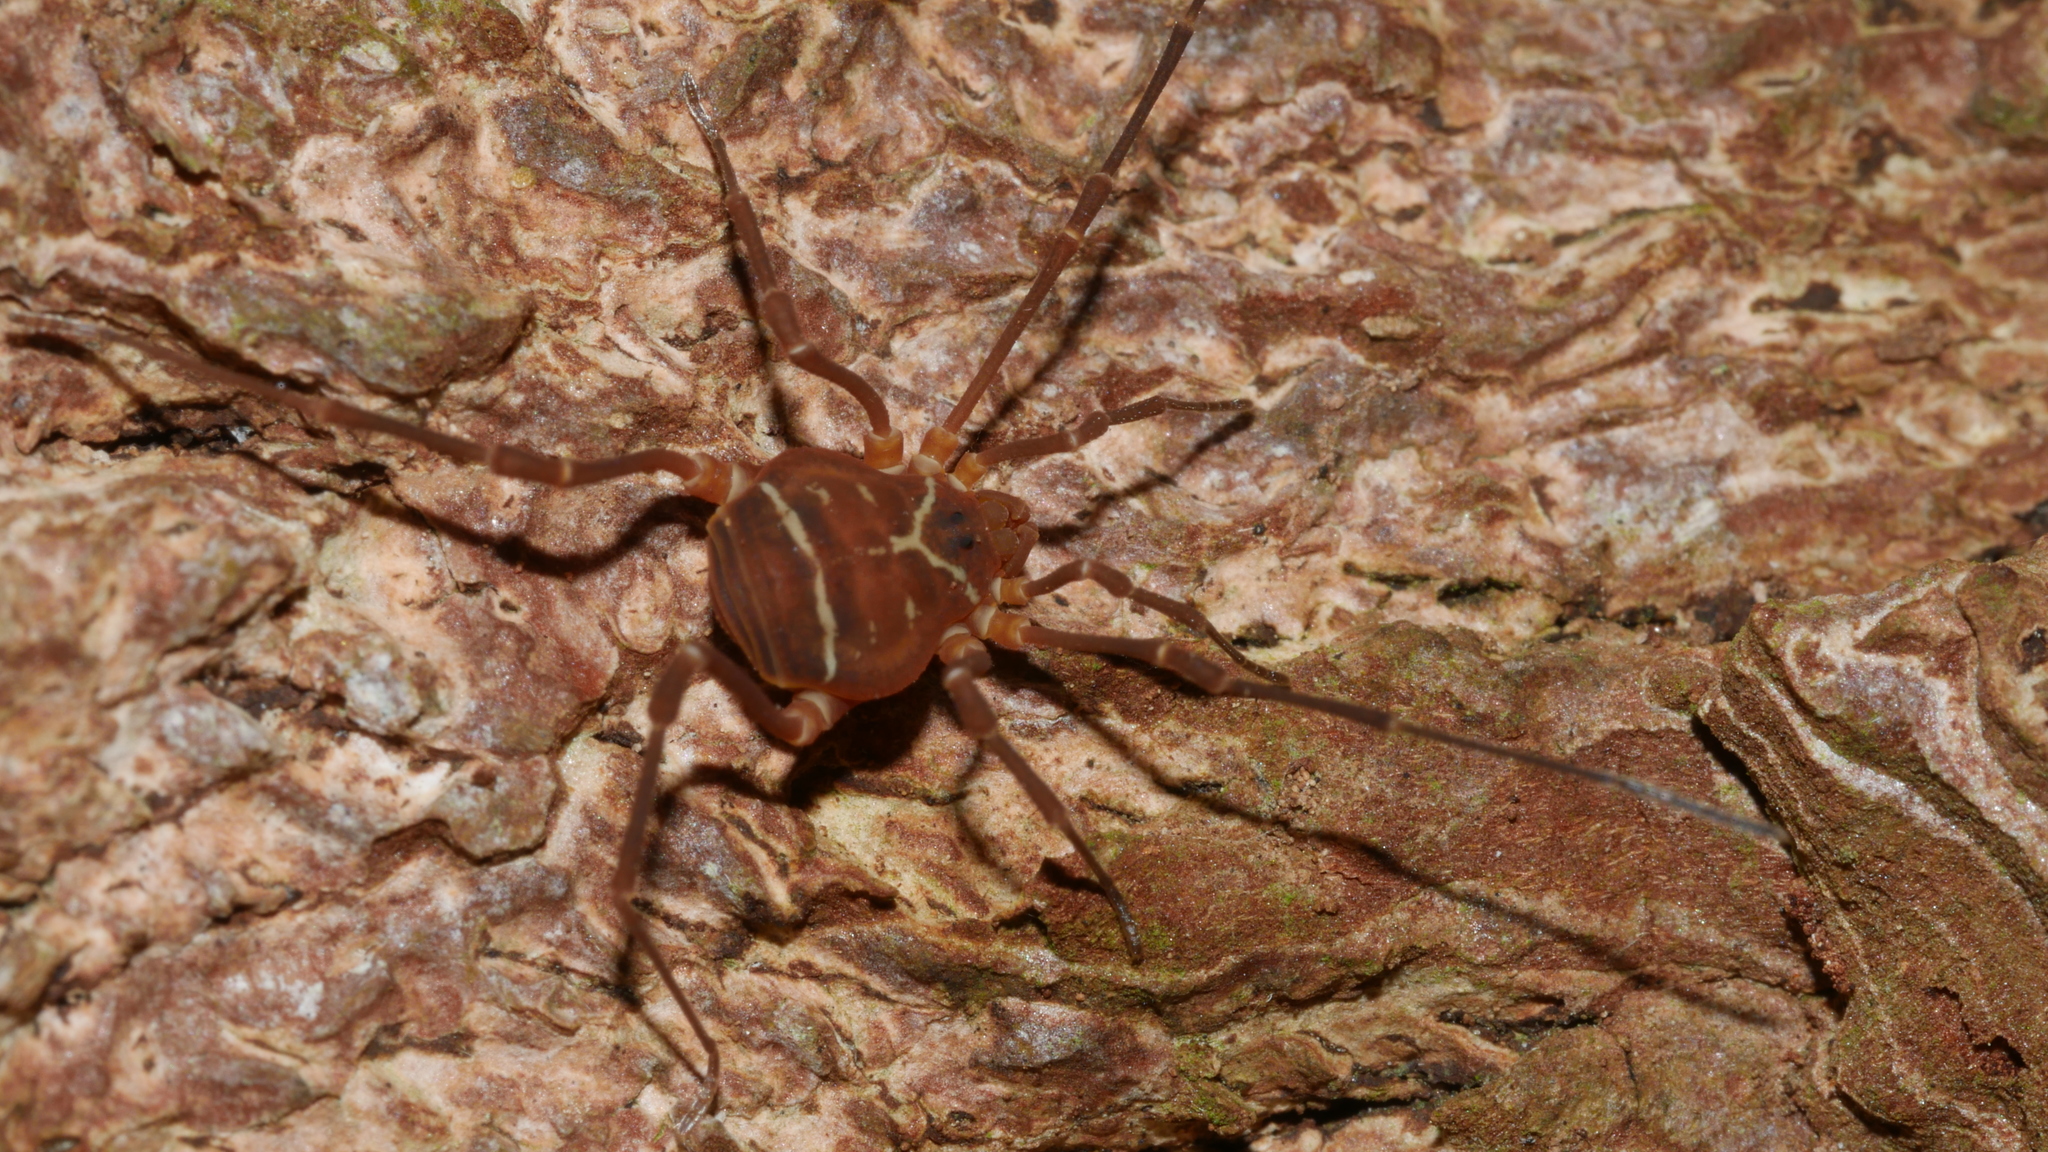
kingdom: Animalia
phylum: Arthropoda
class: Arachnida
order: Opiliones
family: Cosmetidae
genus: Libitioides
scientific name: Libitioides sayi
